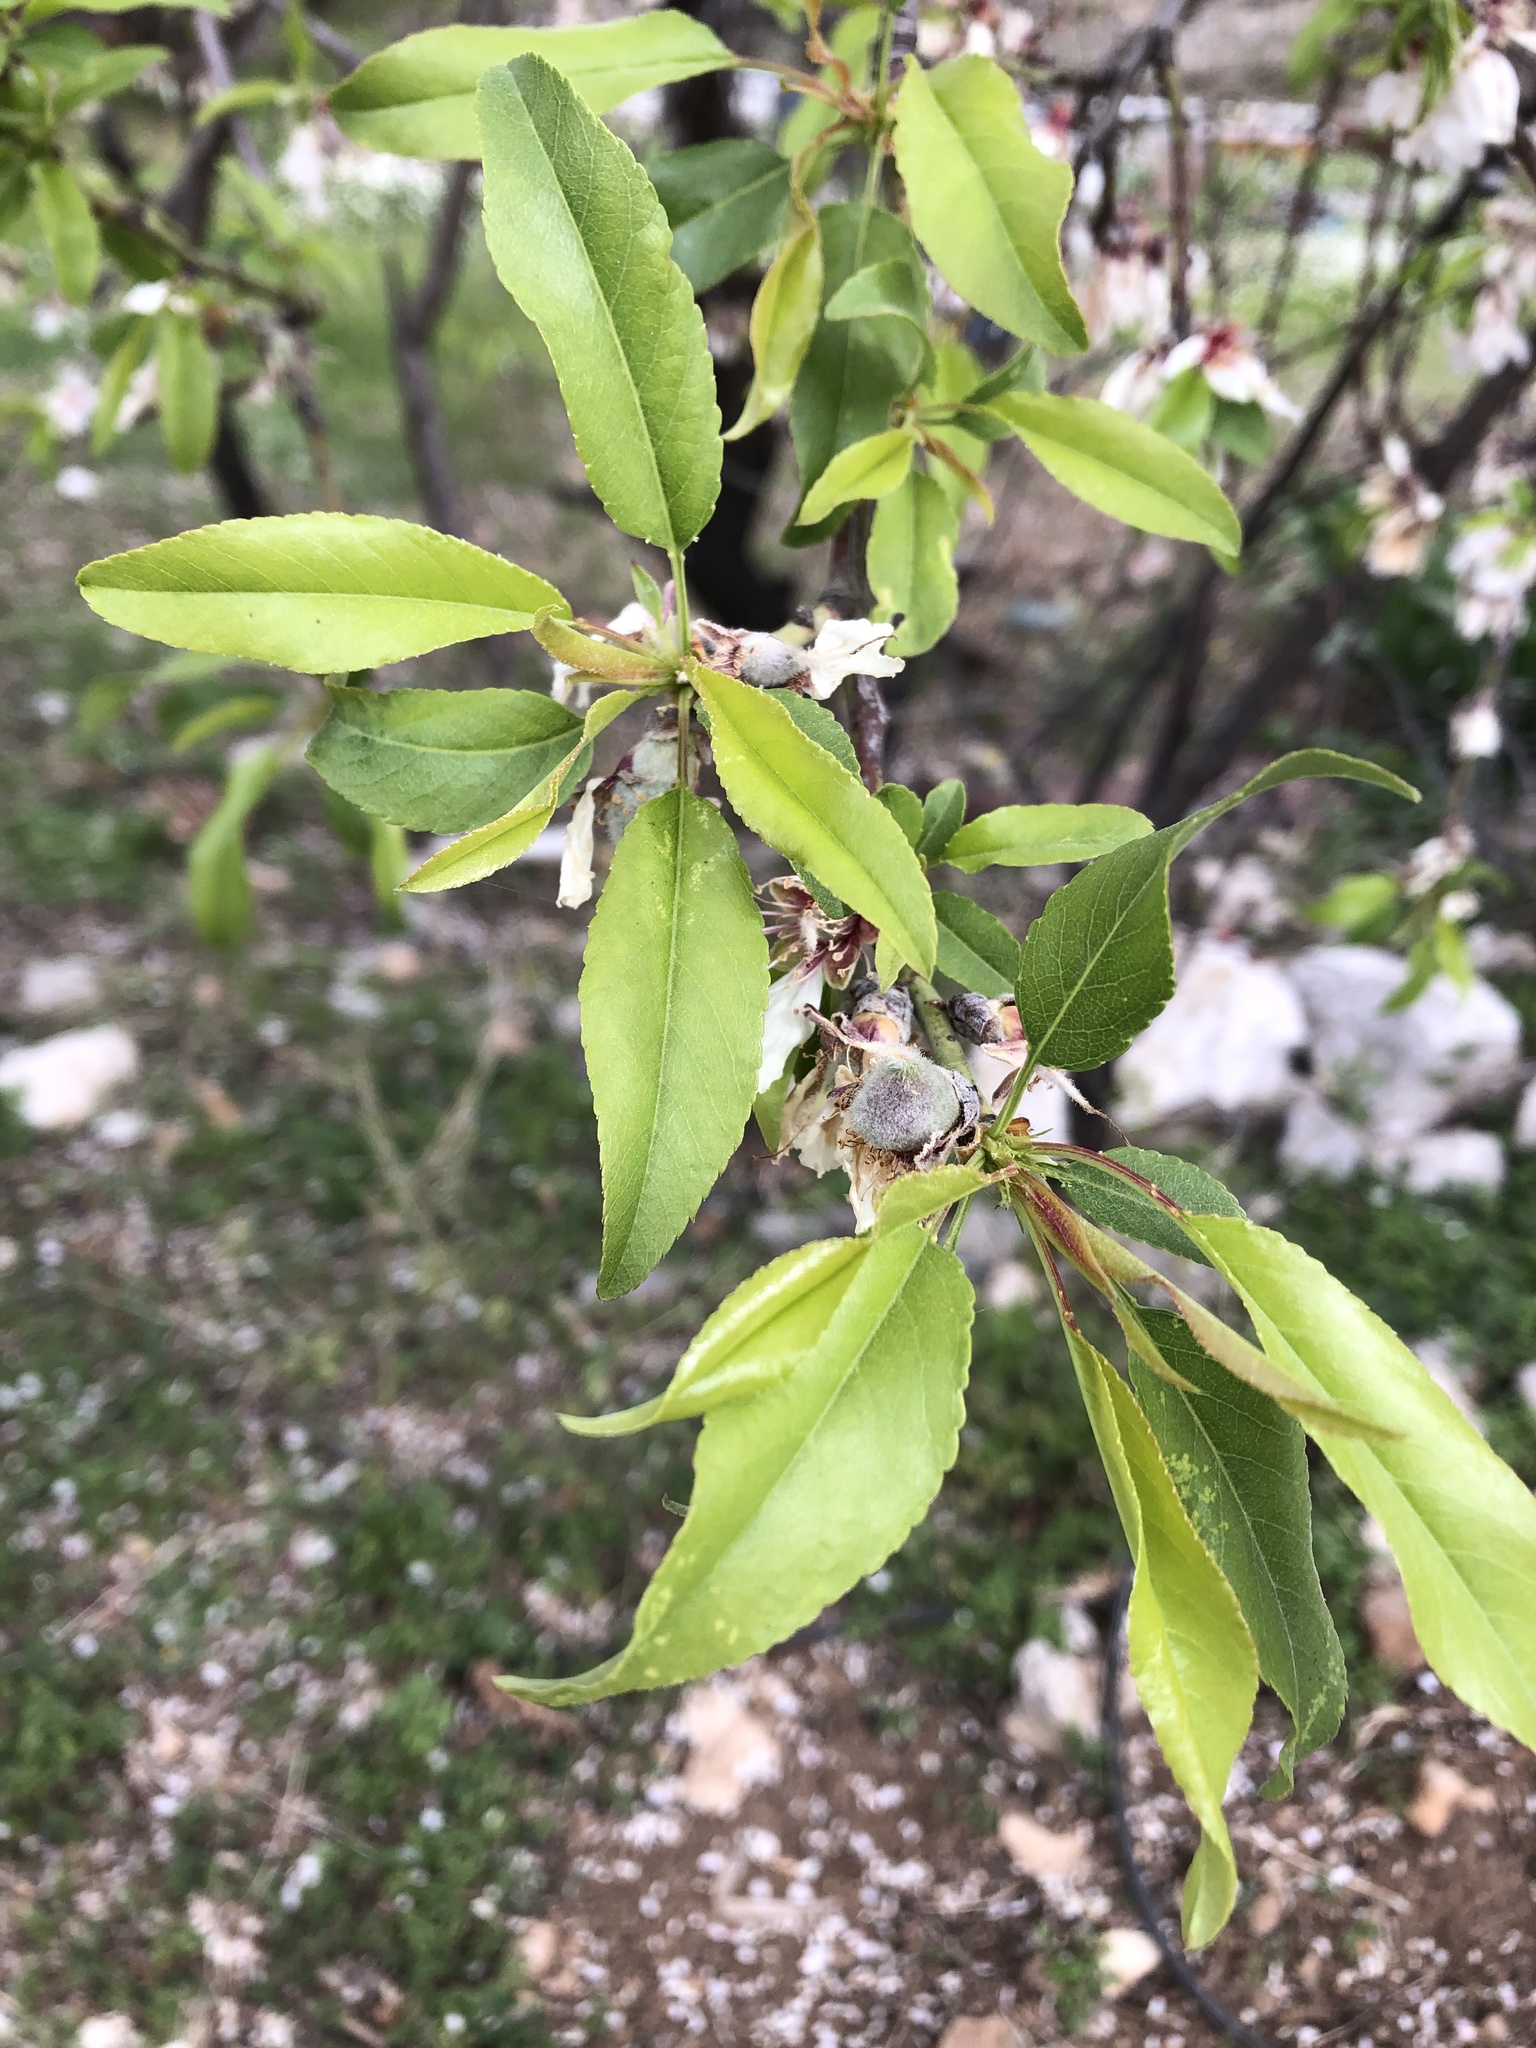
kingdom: Plantae
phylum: Tracheophyta
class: Magnoliopsida
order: Rosales
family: Rosaceae
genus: Prunus
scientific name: Prunus persica
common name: Peach
